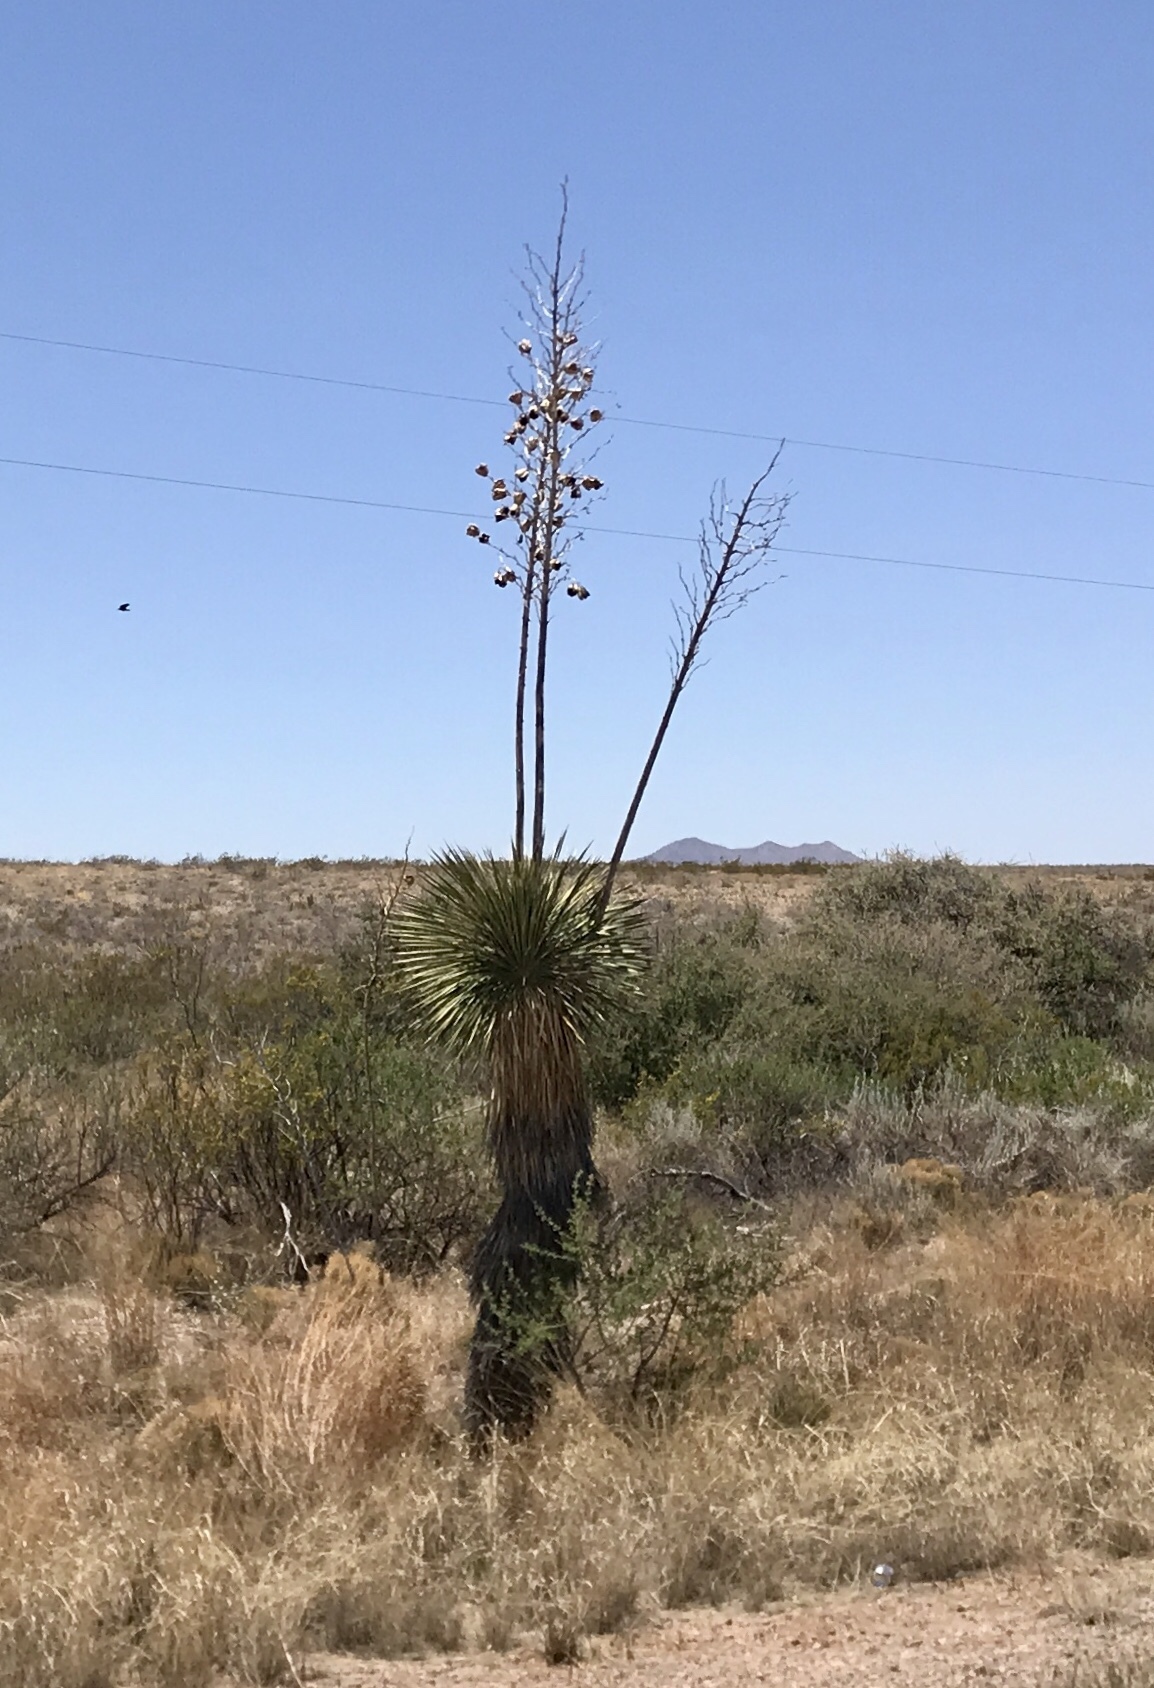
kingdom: Plantae
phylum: Tracheophyta
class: Liliopsida
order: Asparagales
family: Asparagaceae
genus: Yucca
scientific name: Yucca elata
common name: Palmella
